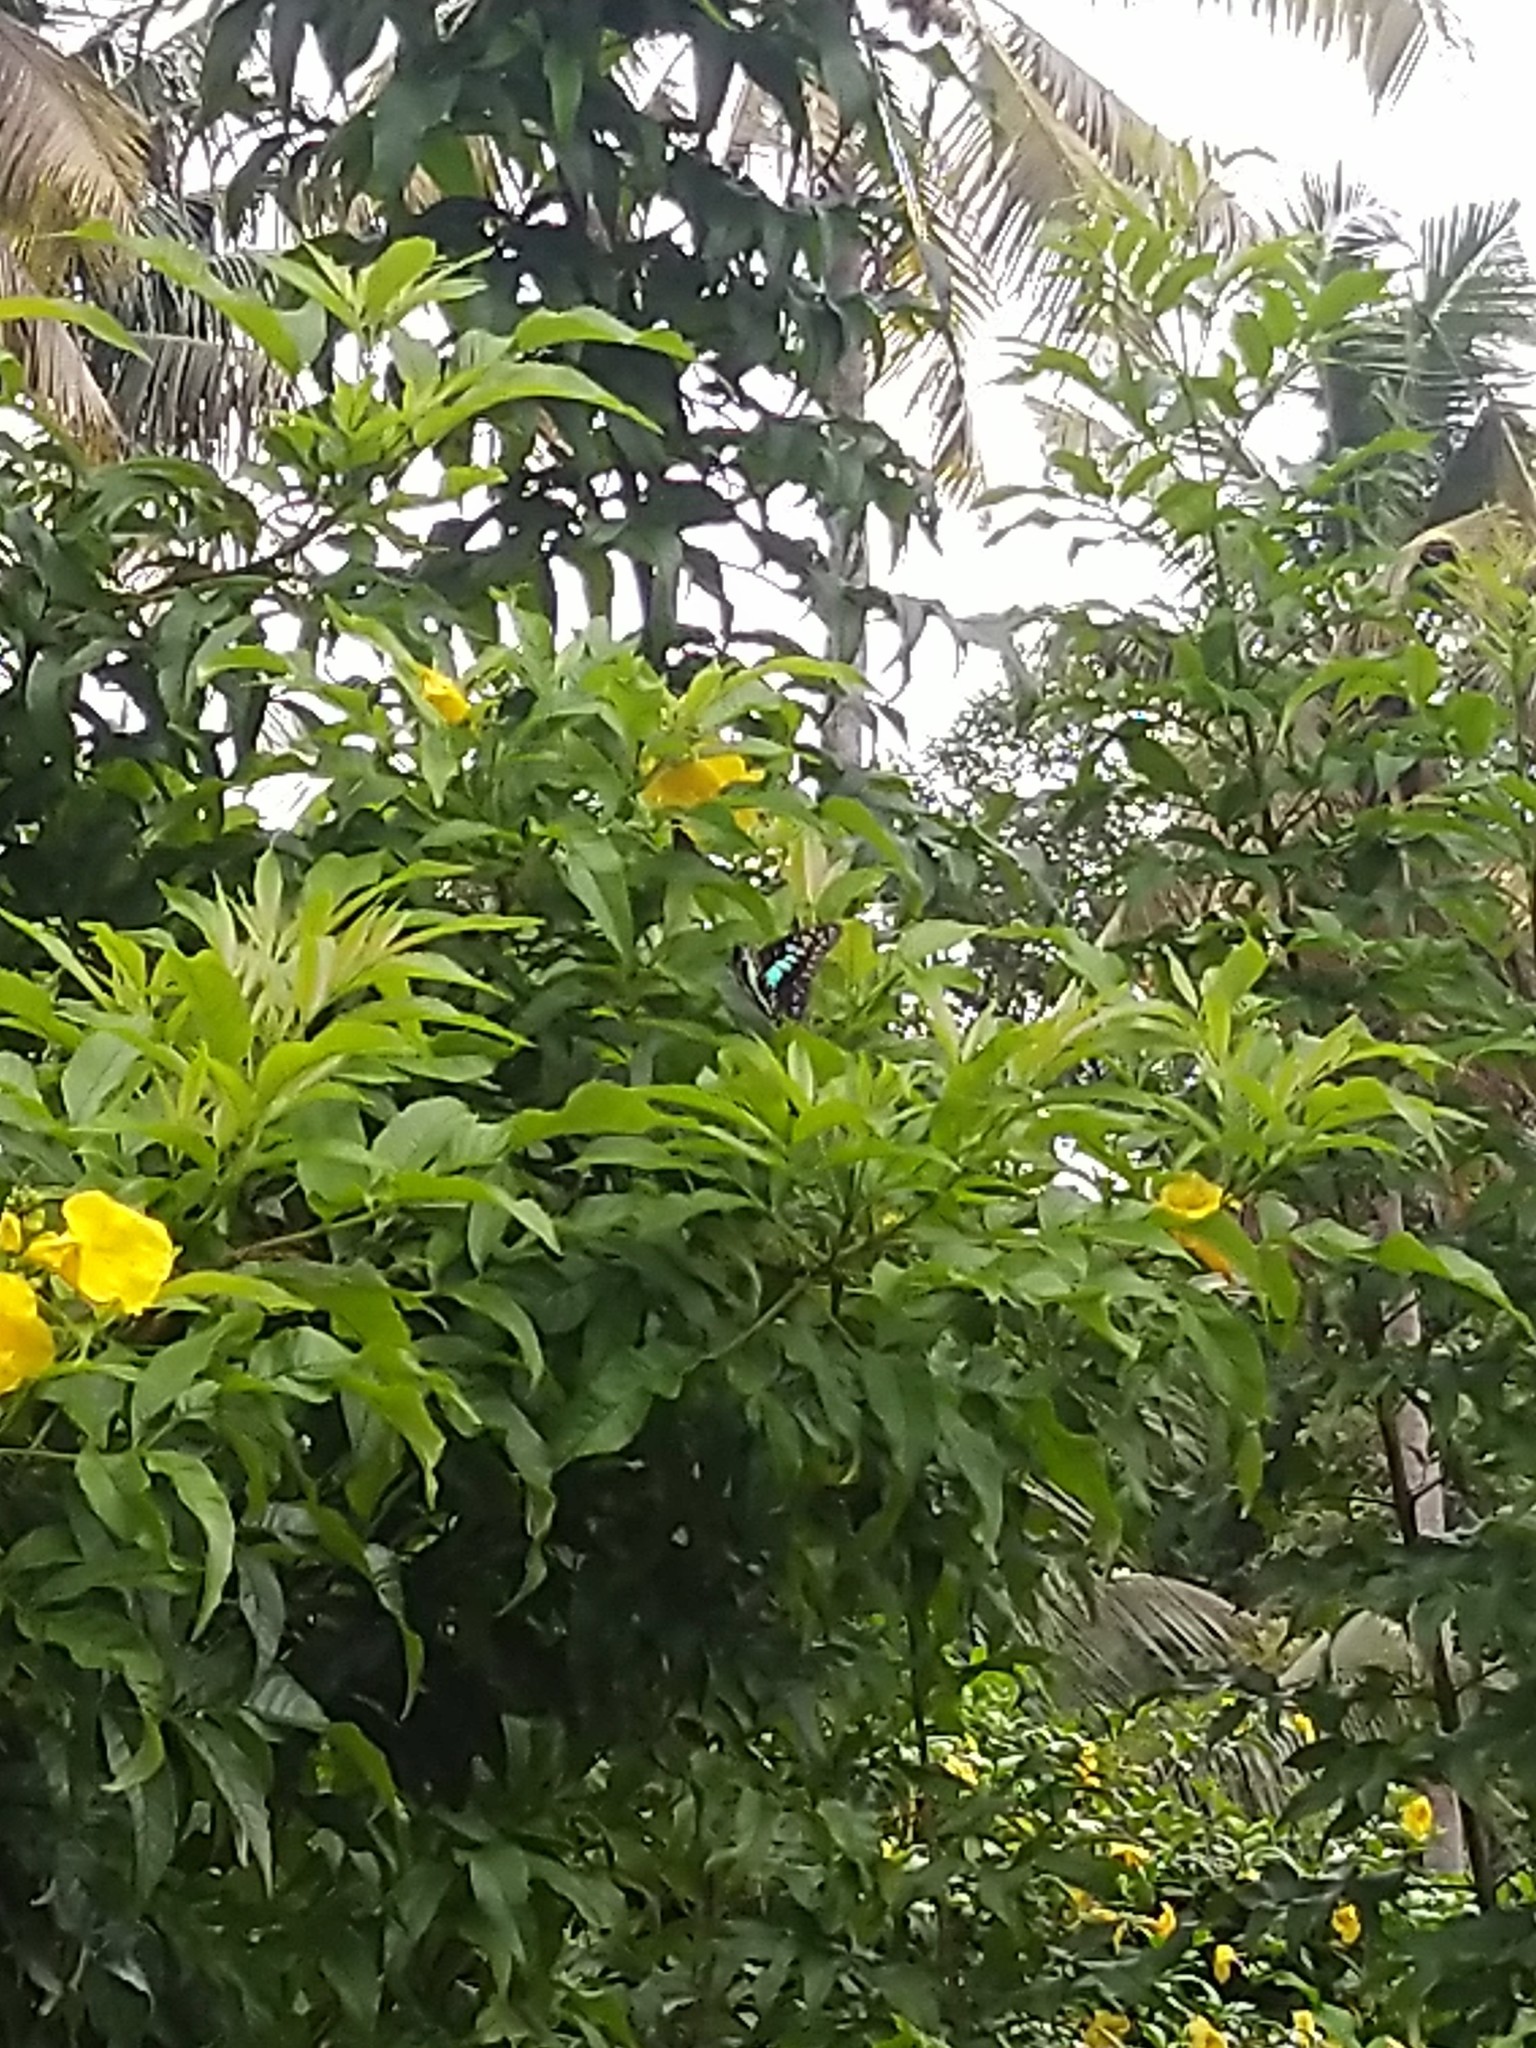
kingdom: Animalia
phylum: Arthropoda
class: Insecta
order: Lepidoptera
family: Papilionidae
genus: Graphium
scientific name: Graphium doson
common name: Common jay
